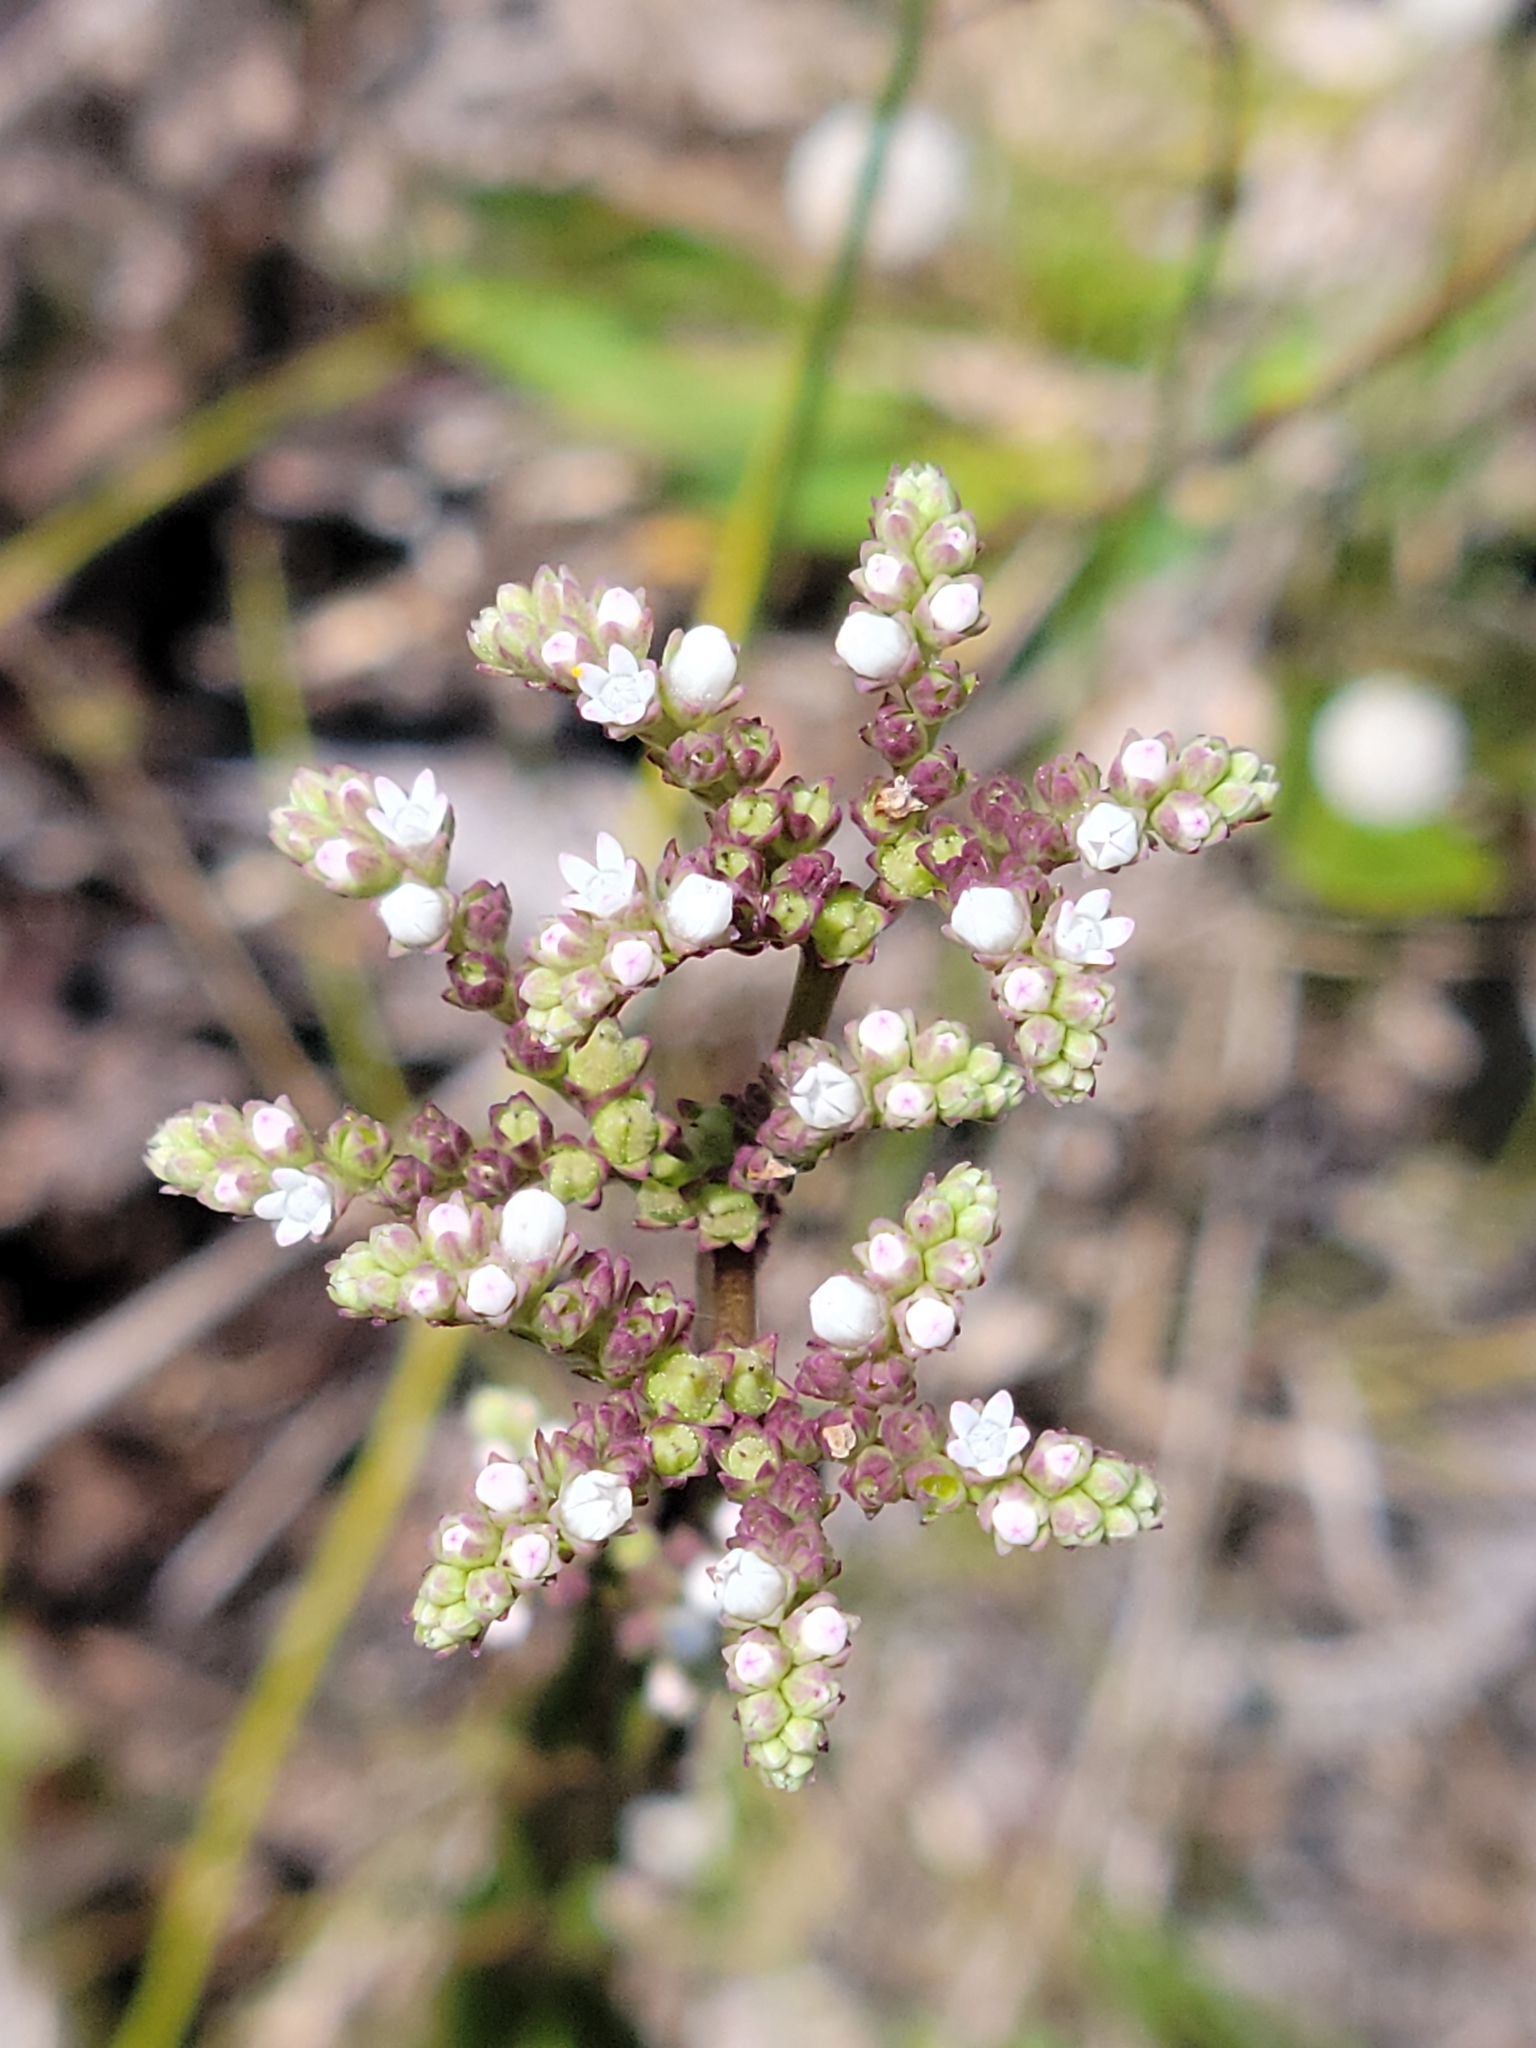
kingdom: Plantae
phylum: Tracheophyta
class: Magnoliopsida
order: Gentianales
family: Loganiaceae
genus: Mitreola
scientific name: Mitreola sessilifolia
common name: Swamp hornpod
